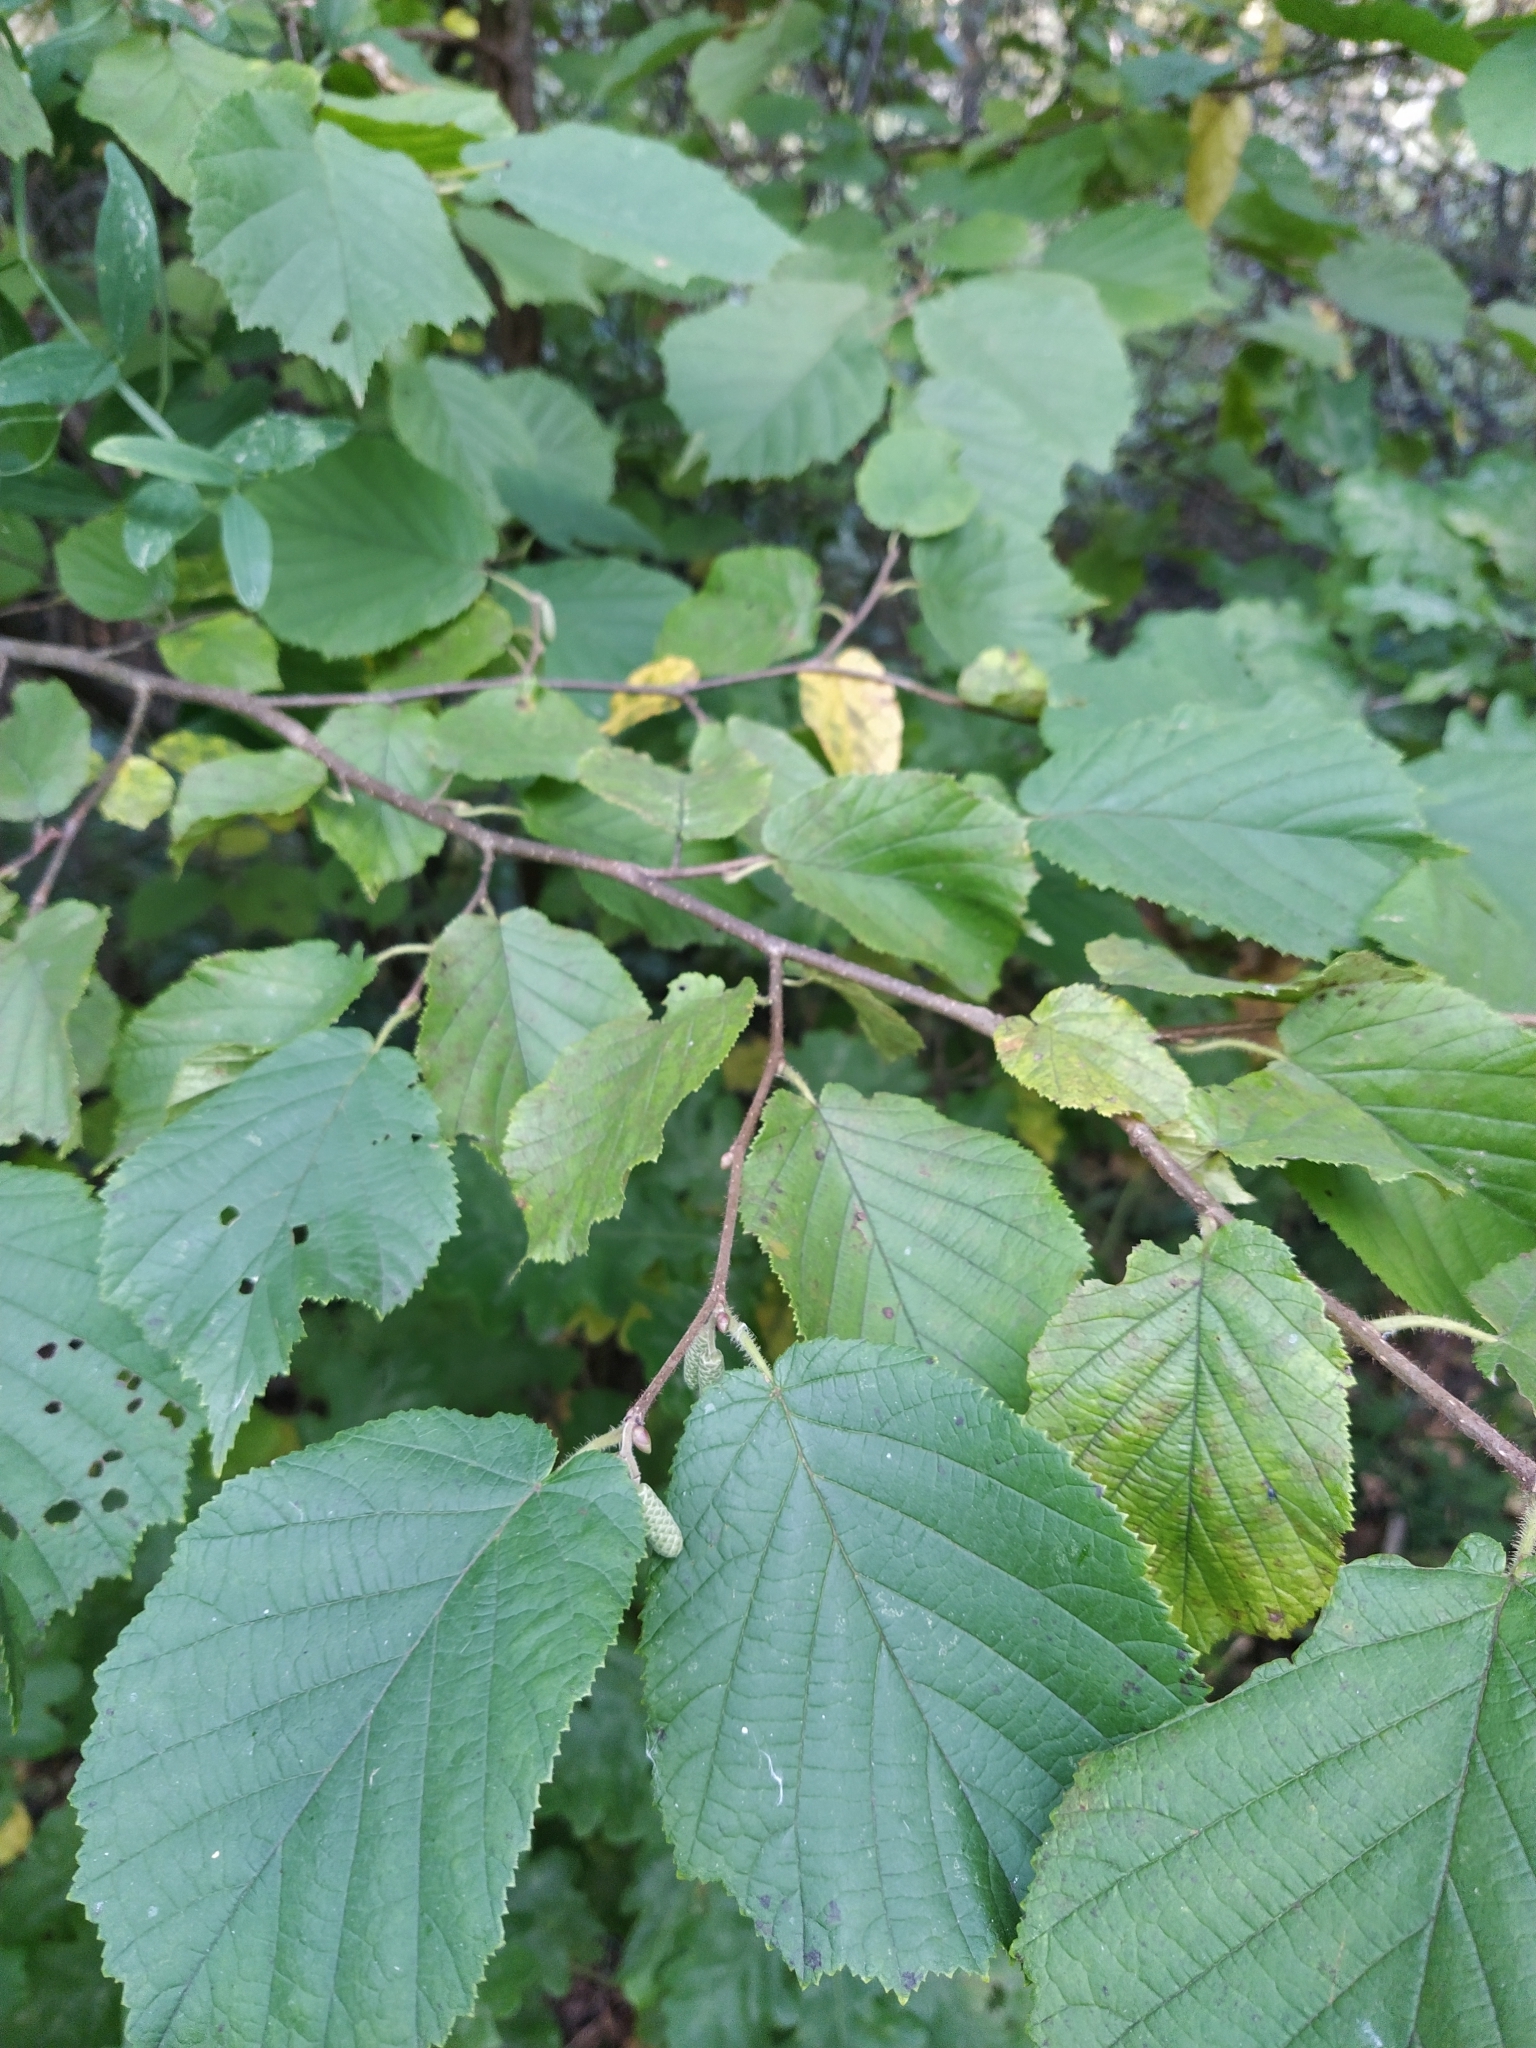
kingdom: Plantae
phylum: Tracheophyta
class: Magnoliopsida
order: Fagales
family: Betulaceae
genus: Corylus
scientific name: Corylus avellana
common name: European hazel
